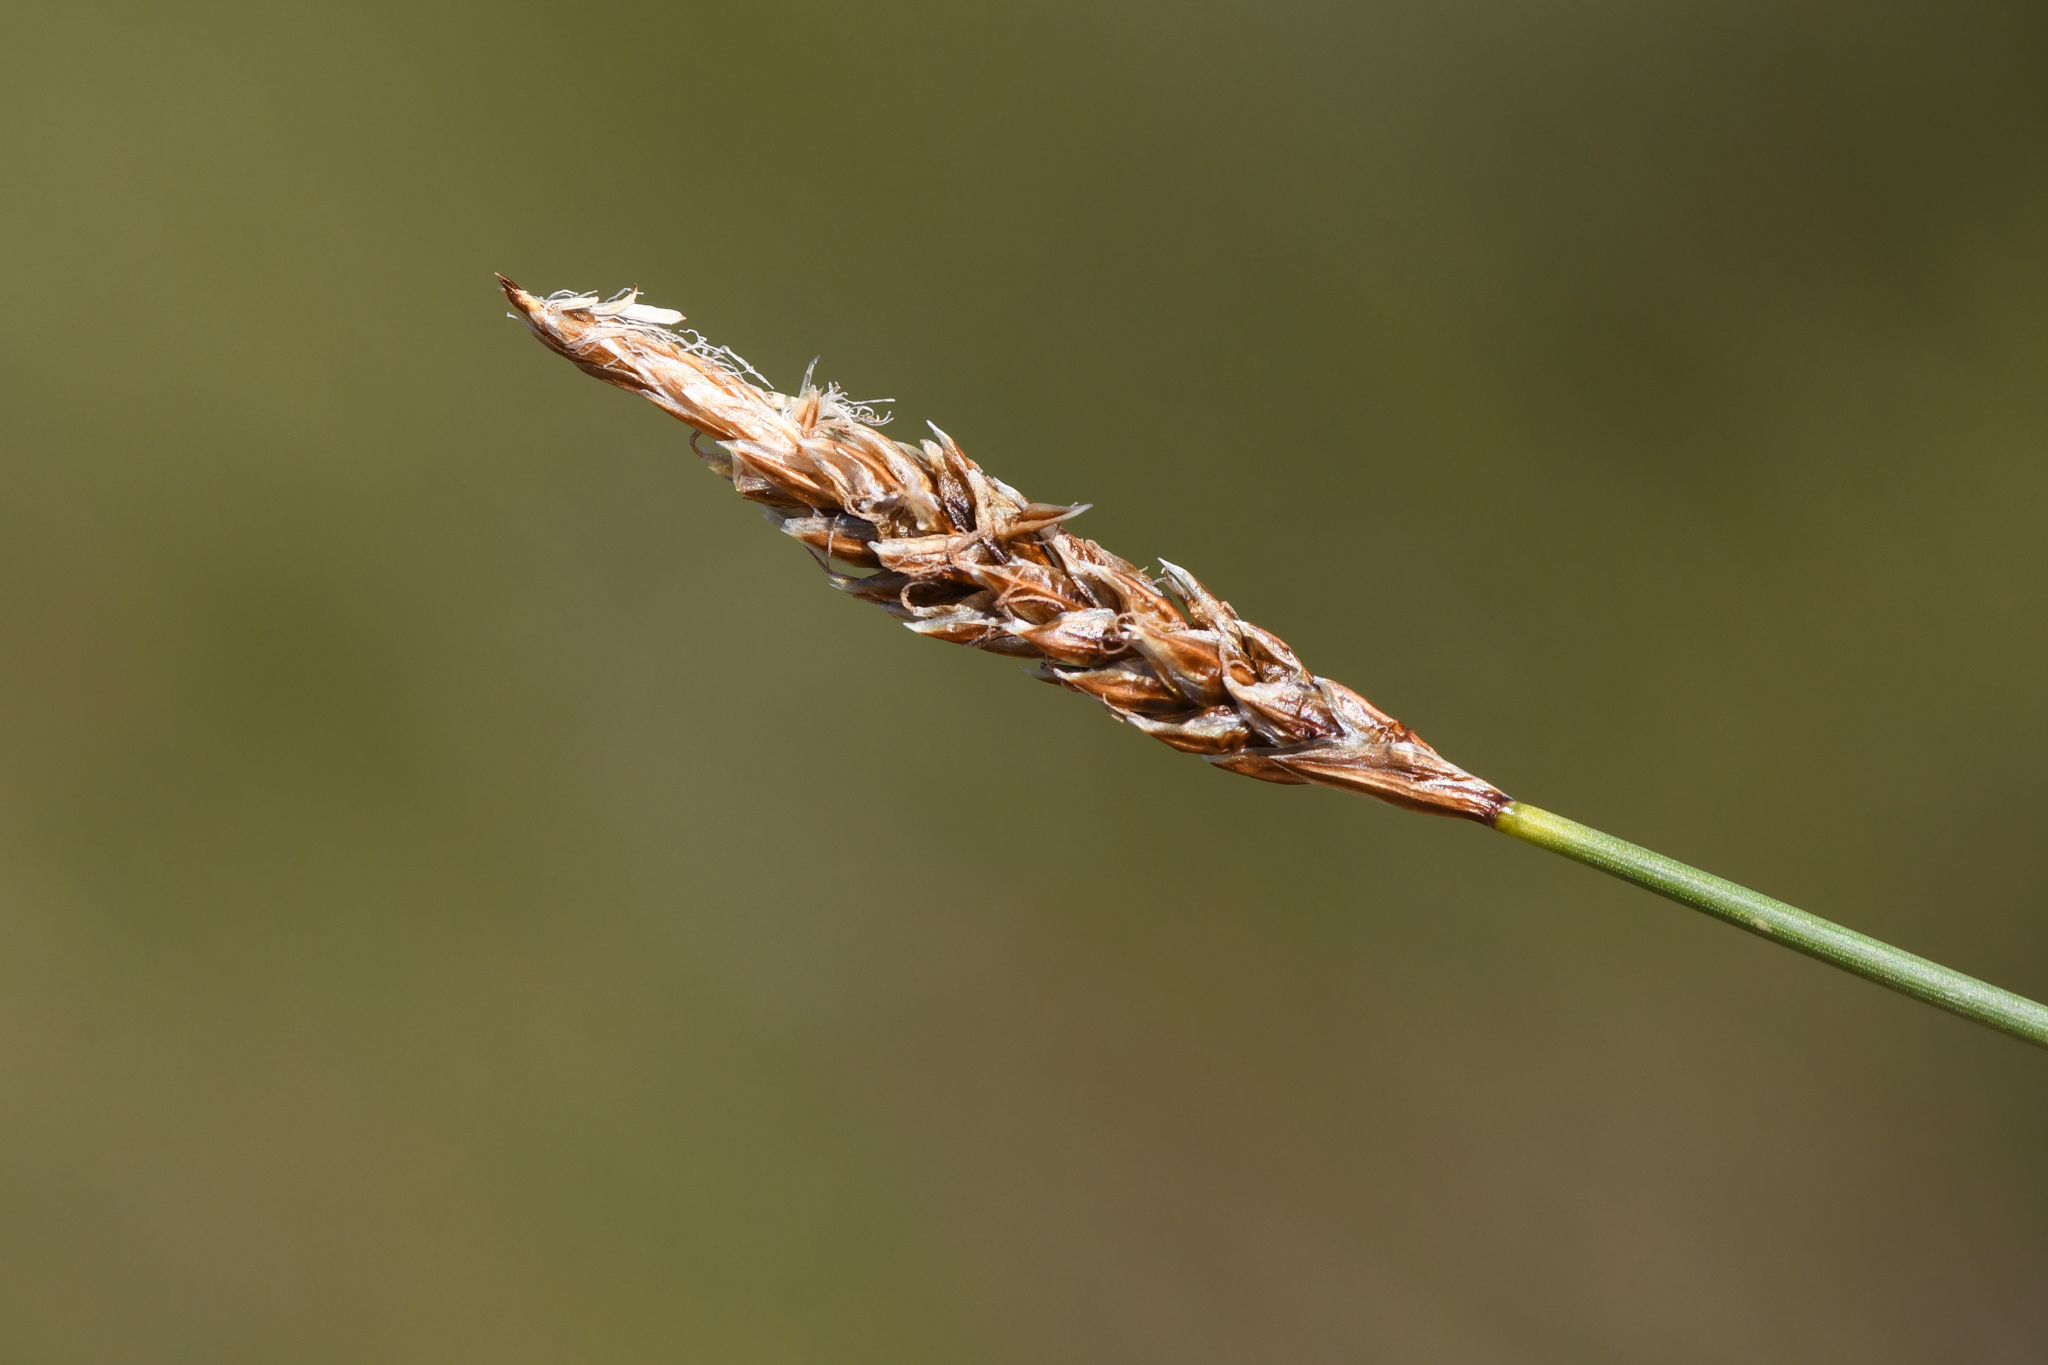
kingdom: Plantae
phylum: Tracheophyta
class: Liliopsida
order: Poales
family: Cyperaceae
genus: Carex
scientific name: Carex subnigricans
